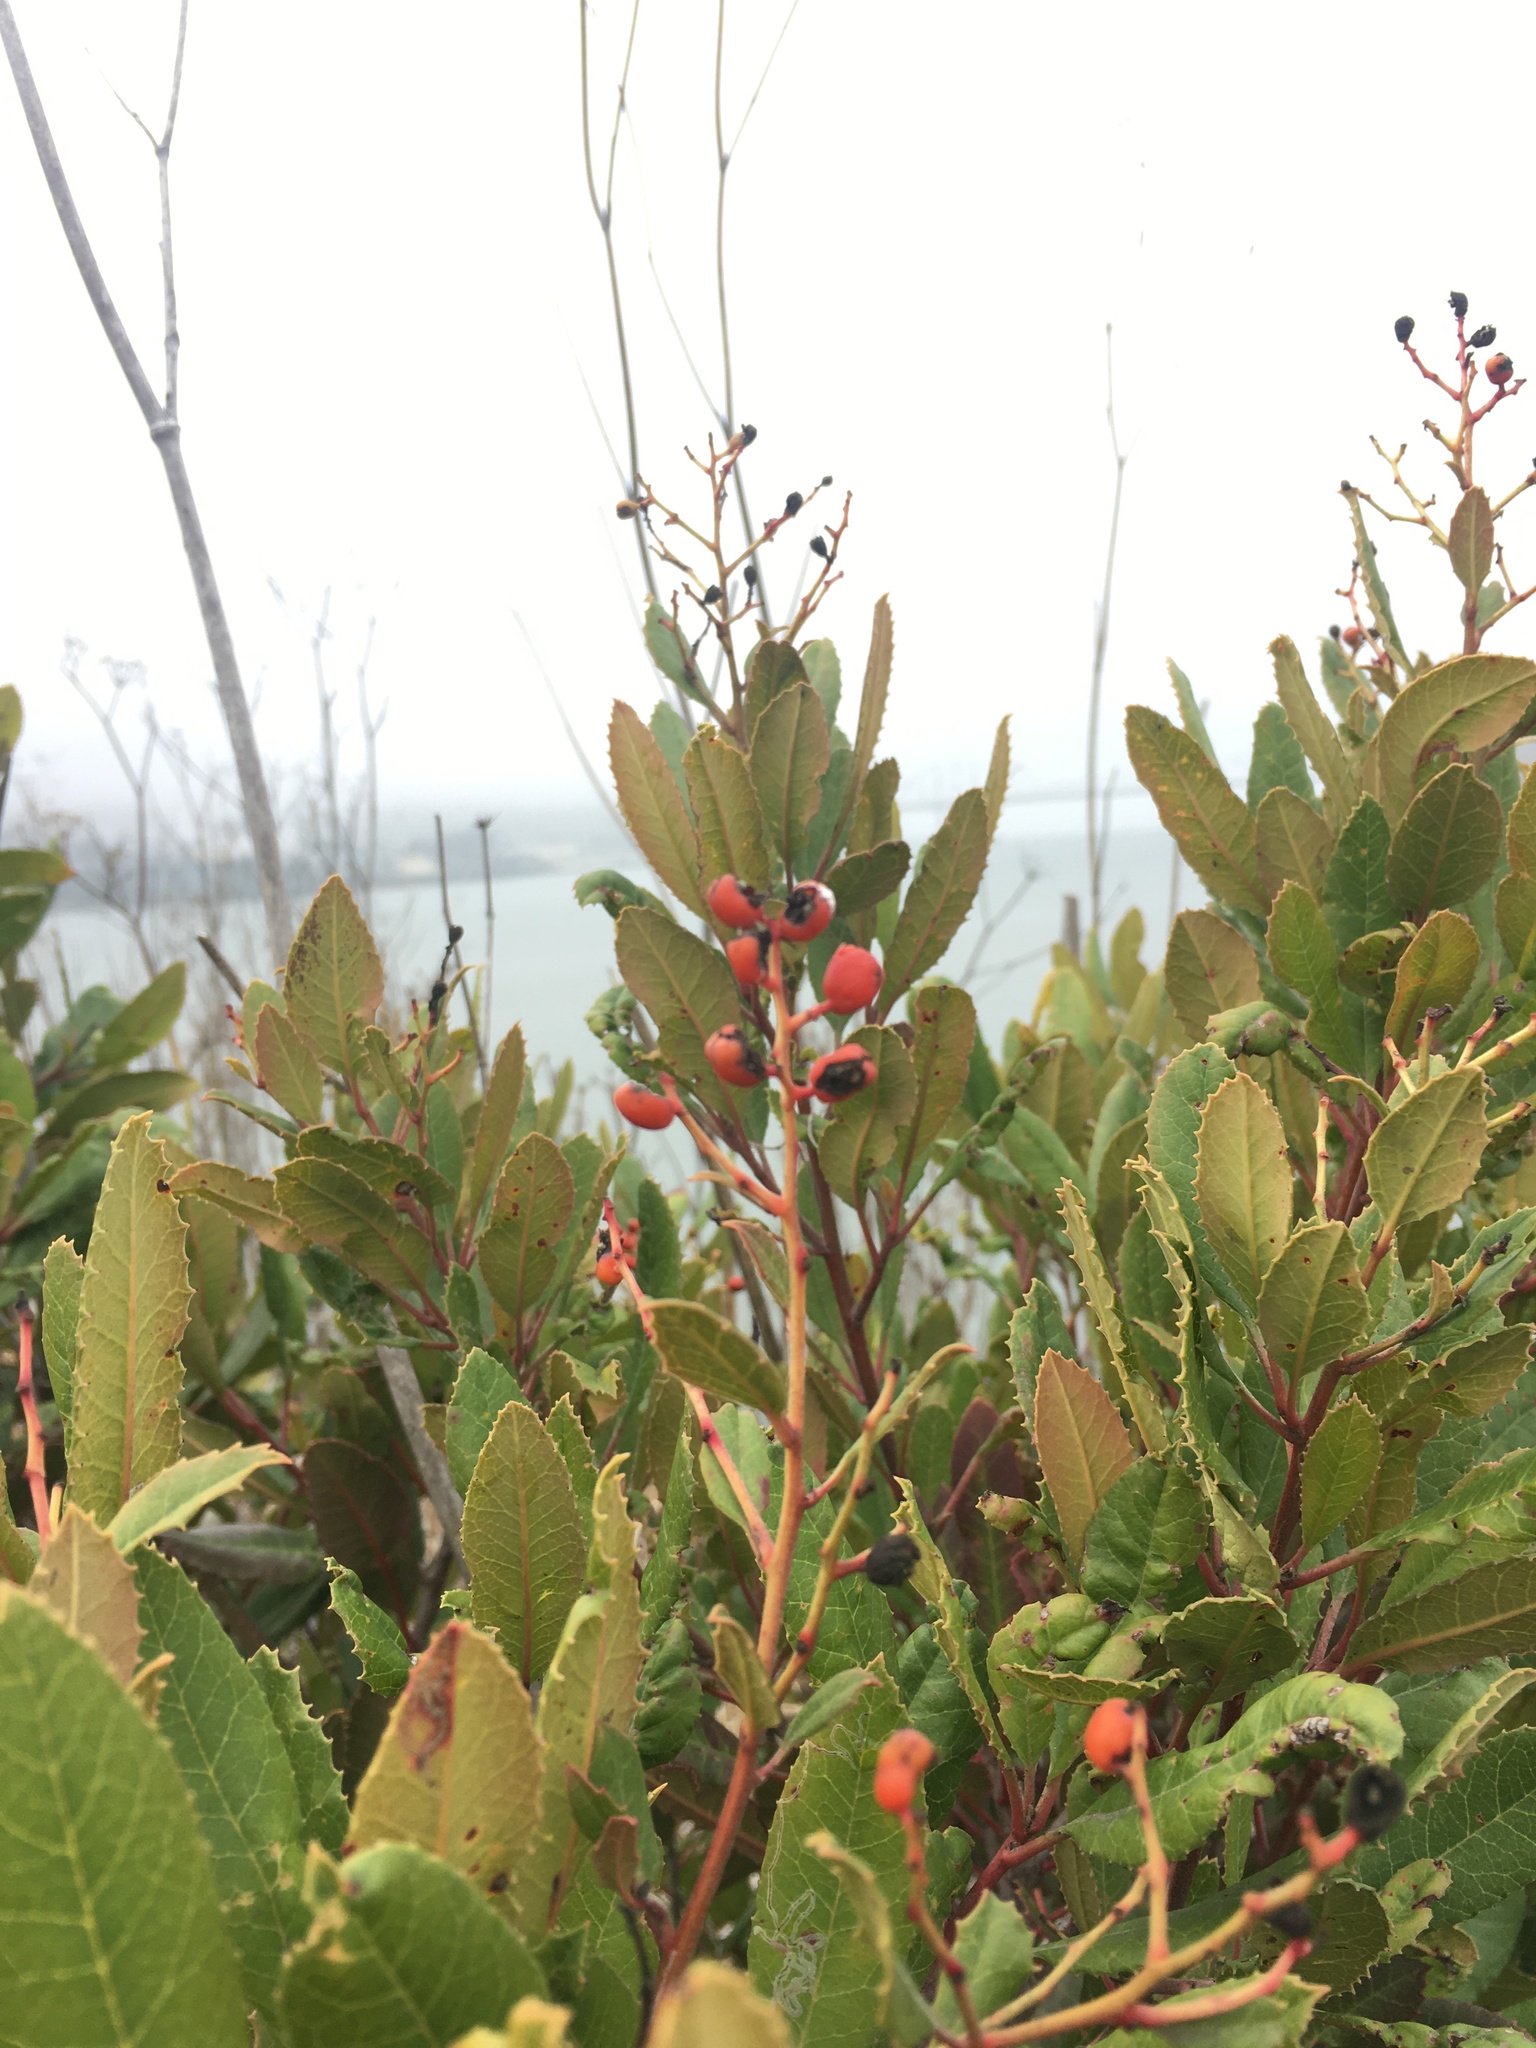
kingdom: Plantae
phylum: Tracheophyta
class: Magnoliopsida
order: Rosales
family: Rosaceae
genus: Heteromeles
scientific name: Heteromeles arbutifolia
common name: California-holly
